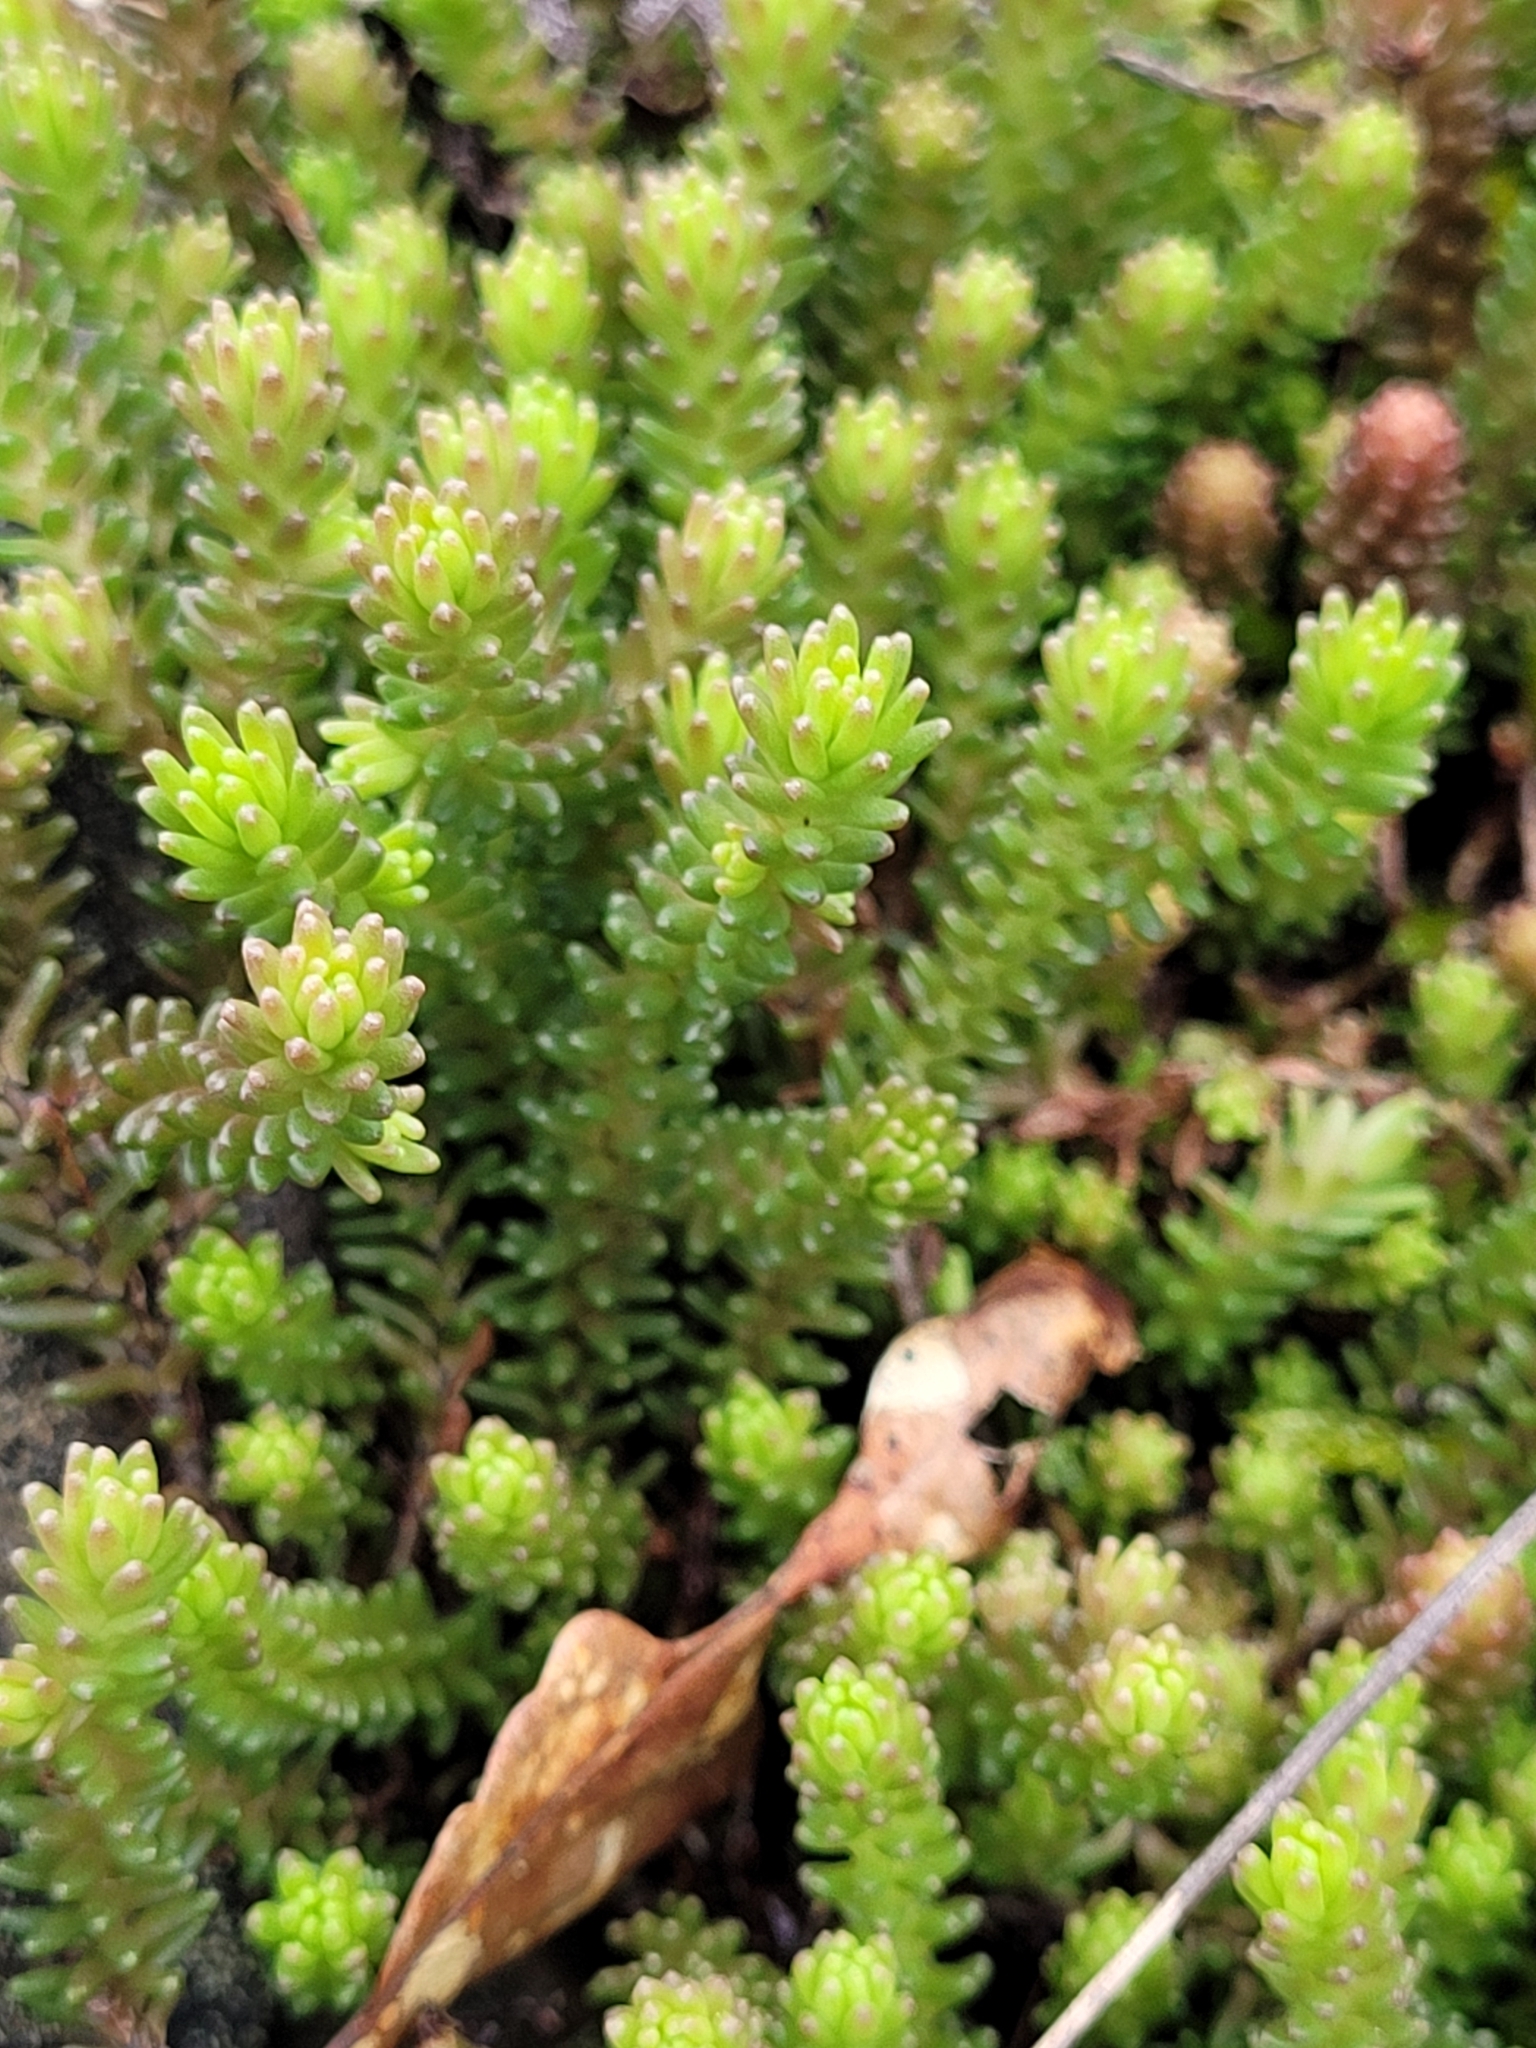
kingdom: Plantae
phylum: Tracheophyta
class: Magnoliopsida
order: Saxifragales
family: Crassulaceae
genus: Sedum
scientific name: Sedum sexangulare
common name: Tasteless stonecrop
